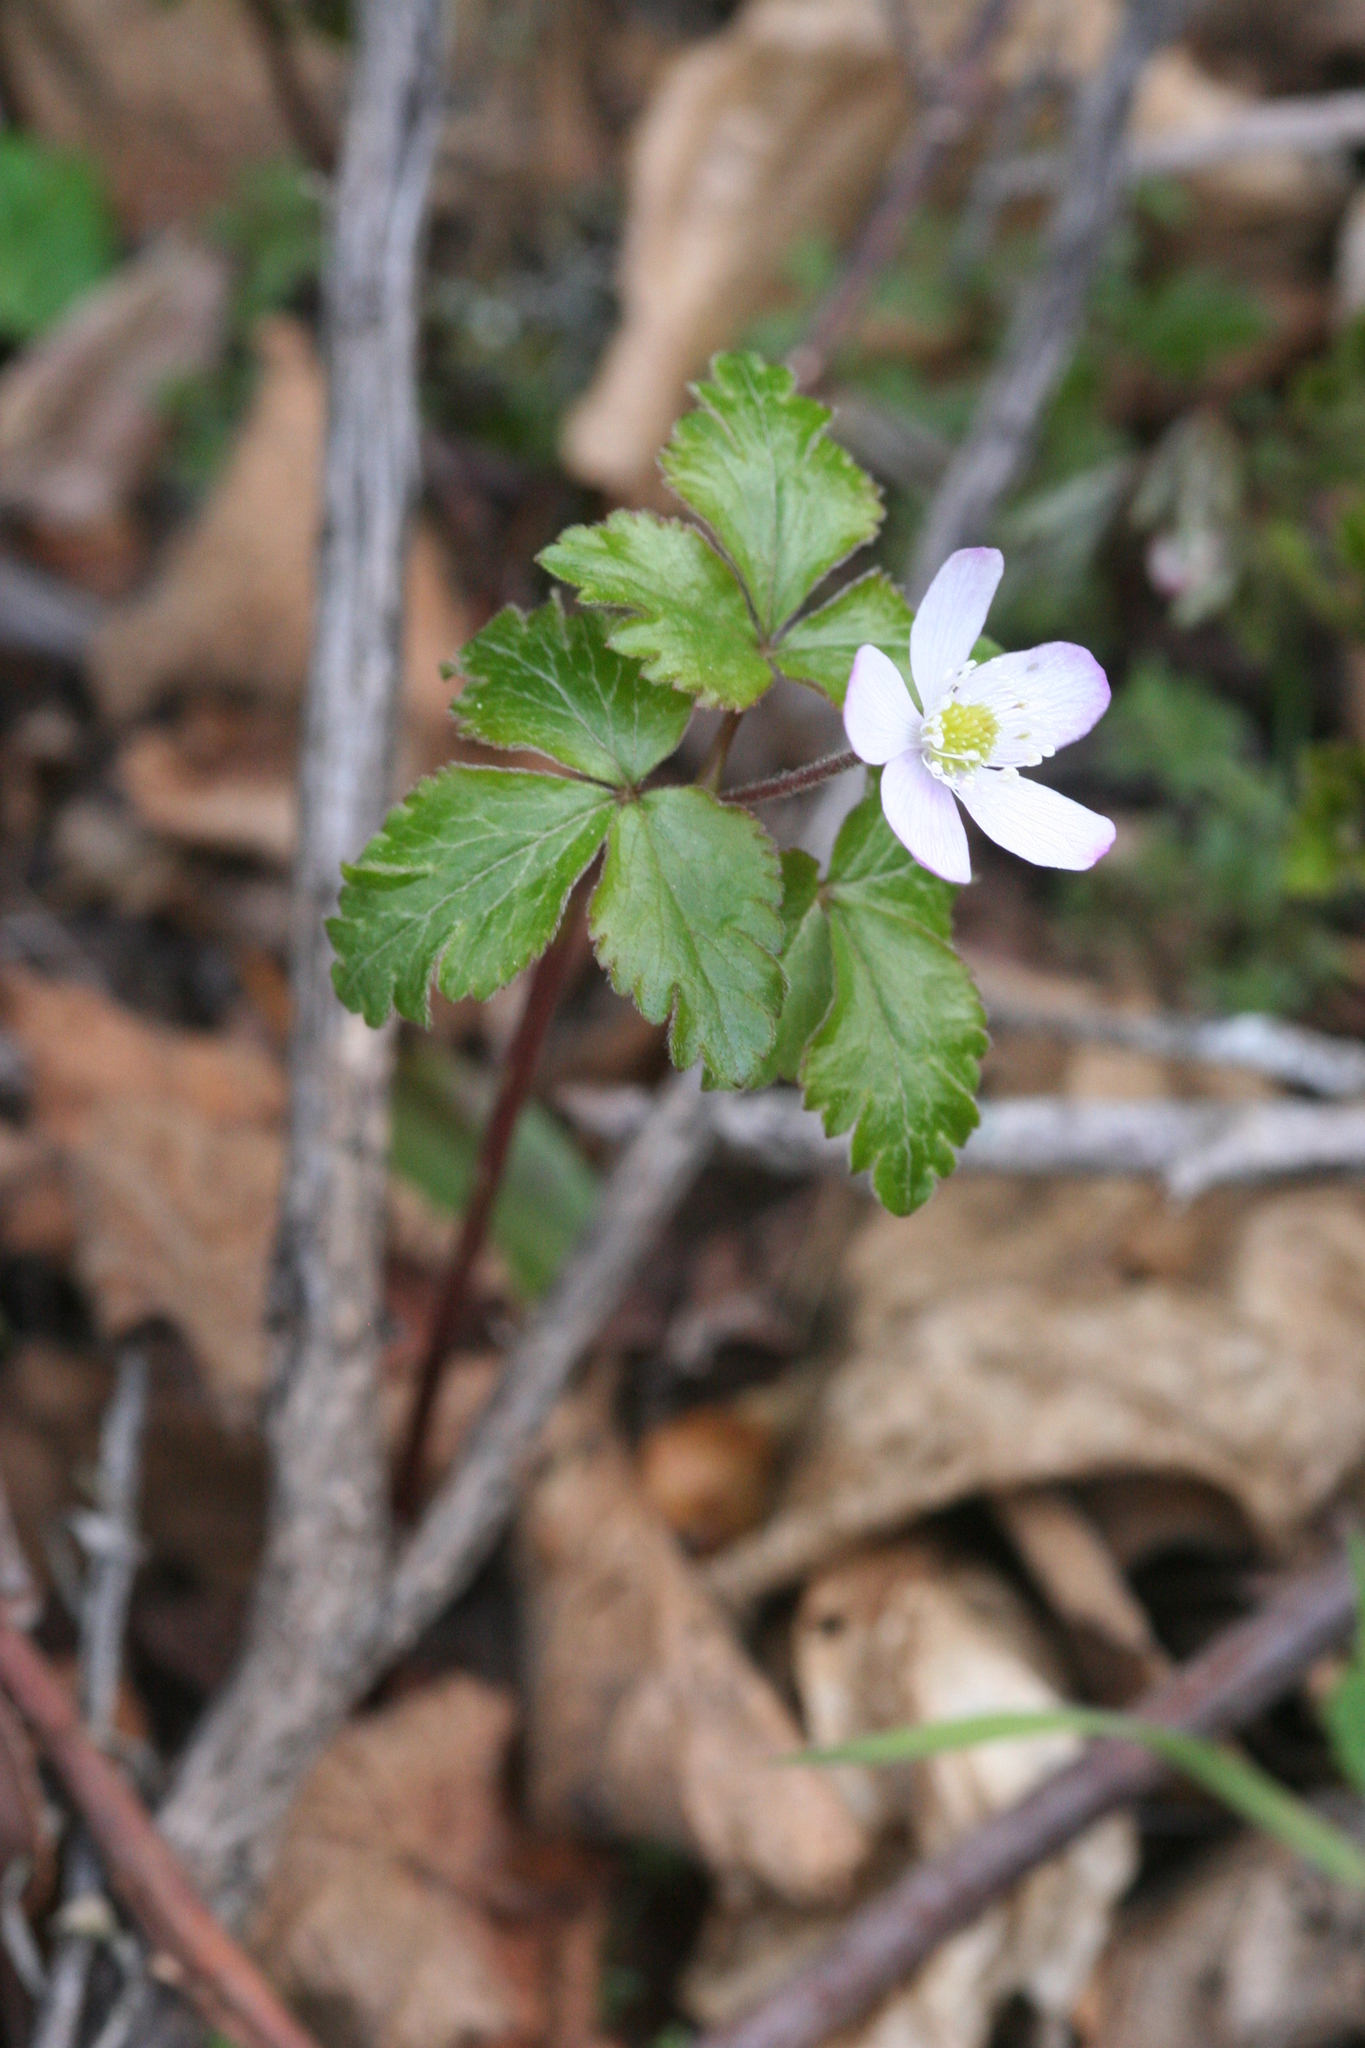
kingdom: Plantae
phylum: Tracheophyta
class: Magnoliopsida
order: Ranunculales
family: Ranunculaceae
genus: Anemone
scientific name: Anemone
